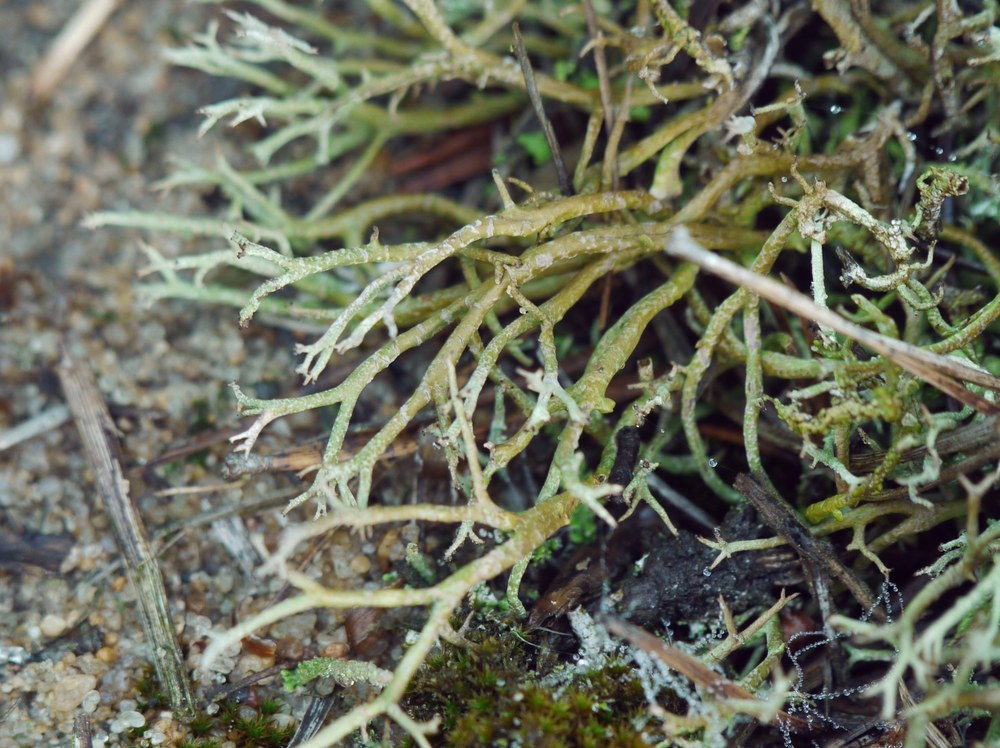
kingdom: Fungi
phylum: Ascomycota
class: Lecanoromycetes
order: Lecanorales
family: Cladoniaceae
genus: Cladonia
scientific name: Cladonia furcata
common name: Many-forked cladonia
